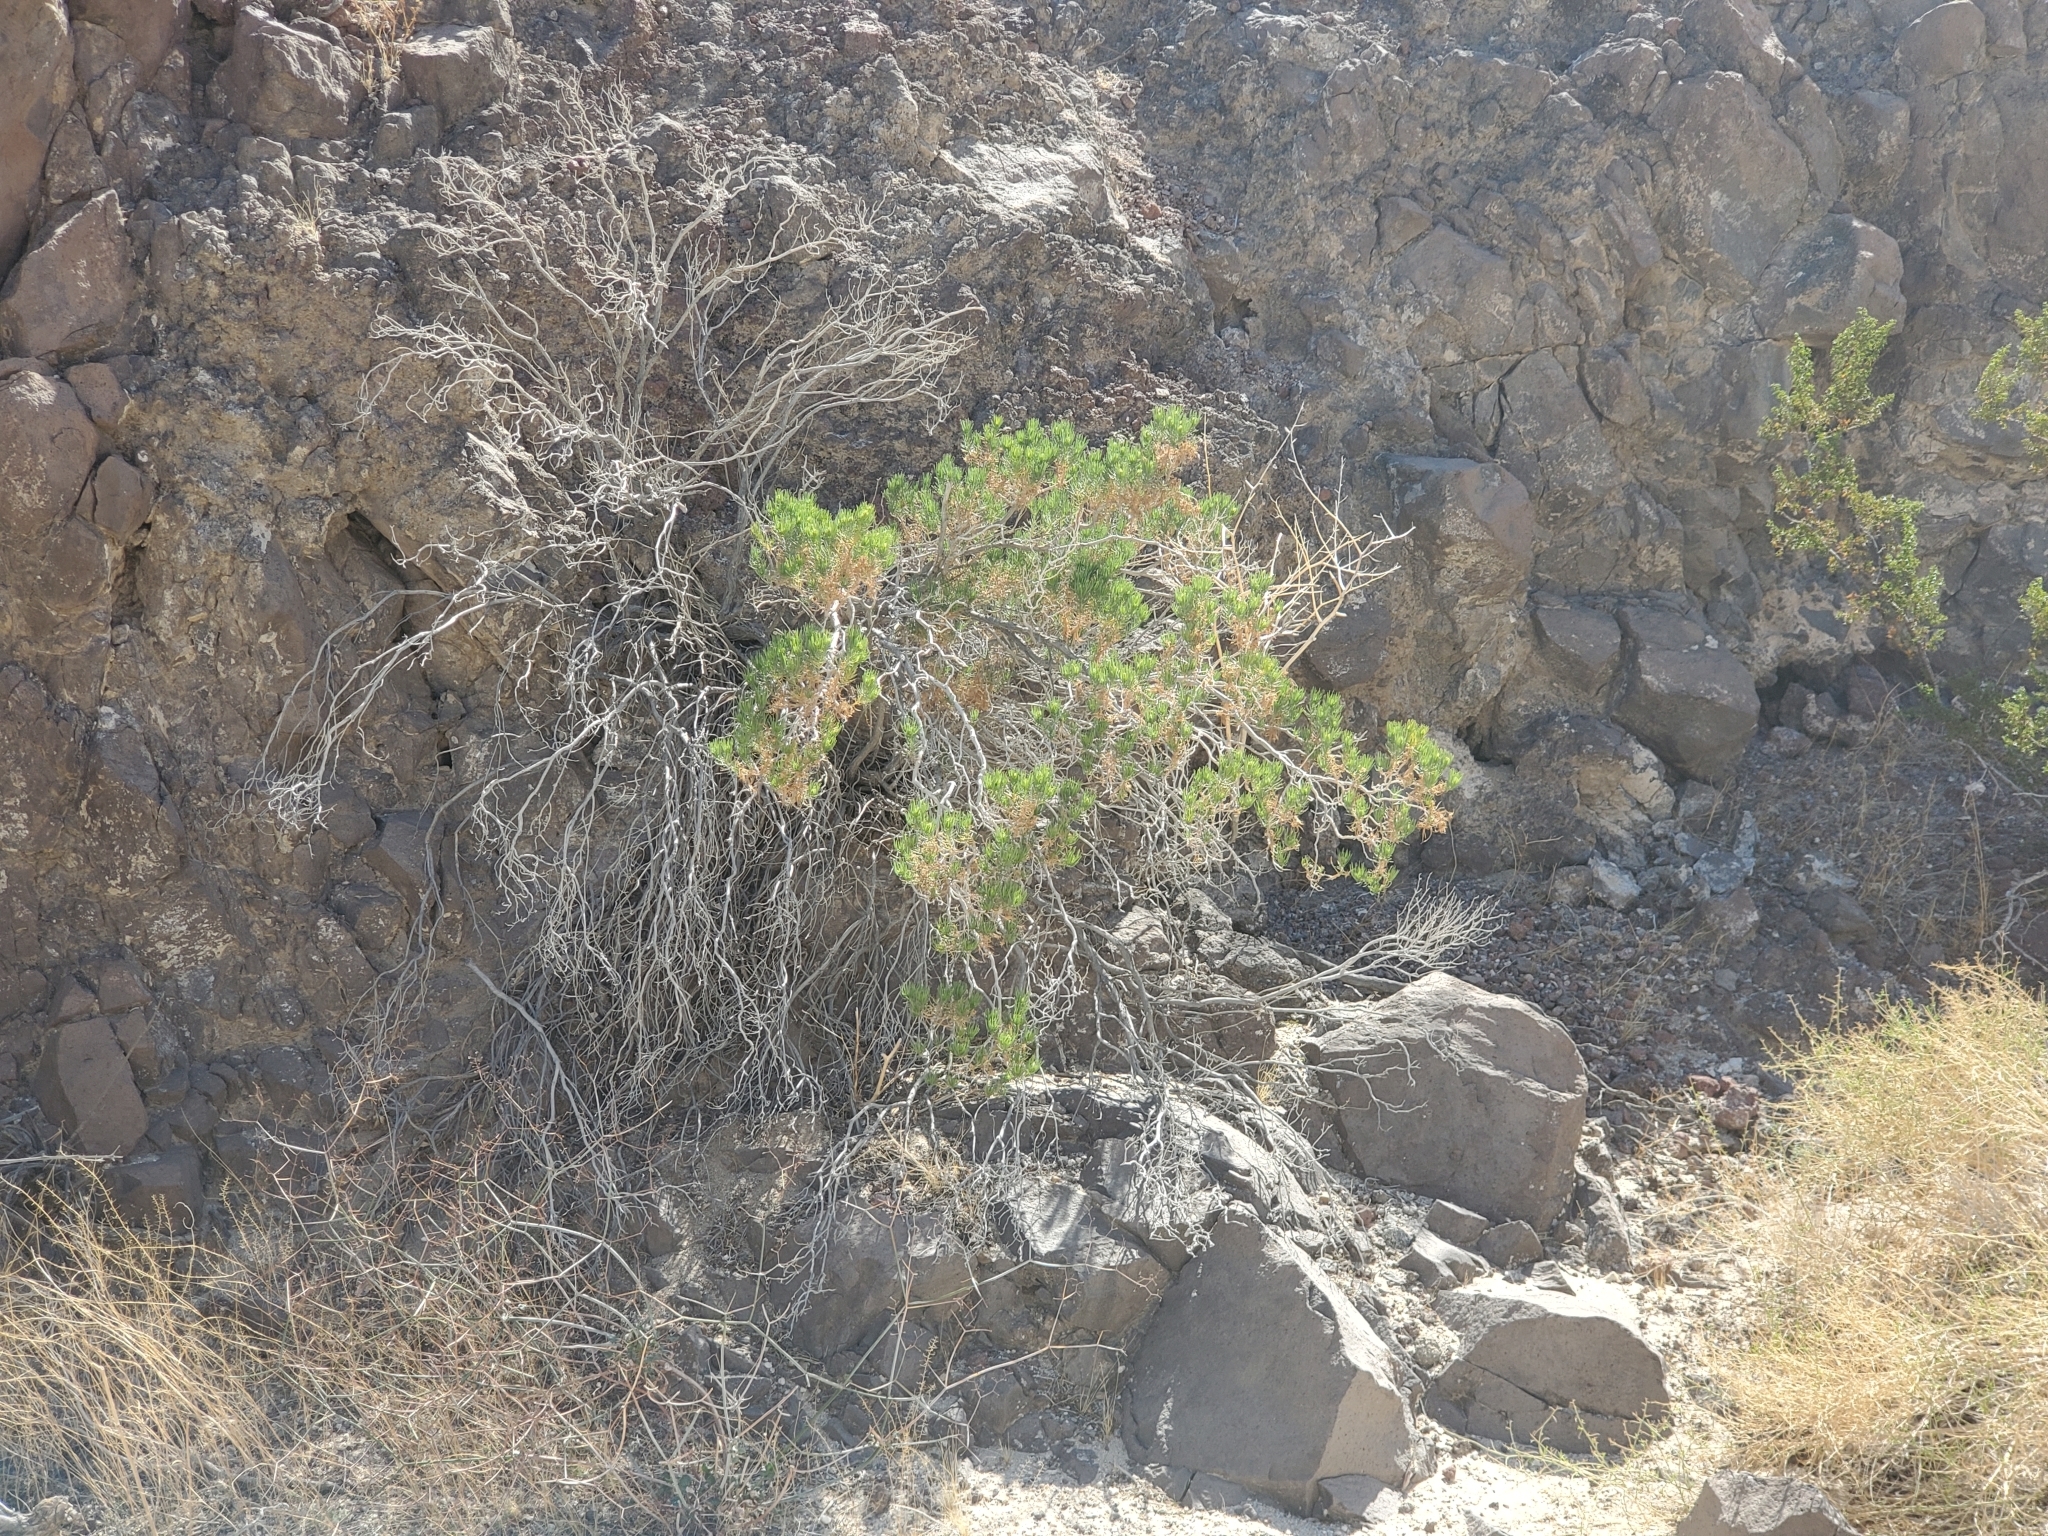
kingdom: Plantae
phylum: Tracheophyta
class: Magnoliopsida
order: Asterales
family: Asteraceae
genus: Peucephyllum
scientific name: Peucephyllum schottii
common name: Pygmy-cedar
